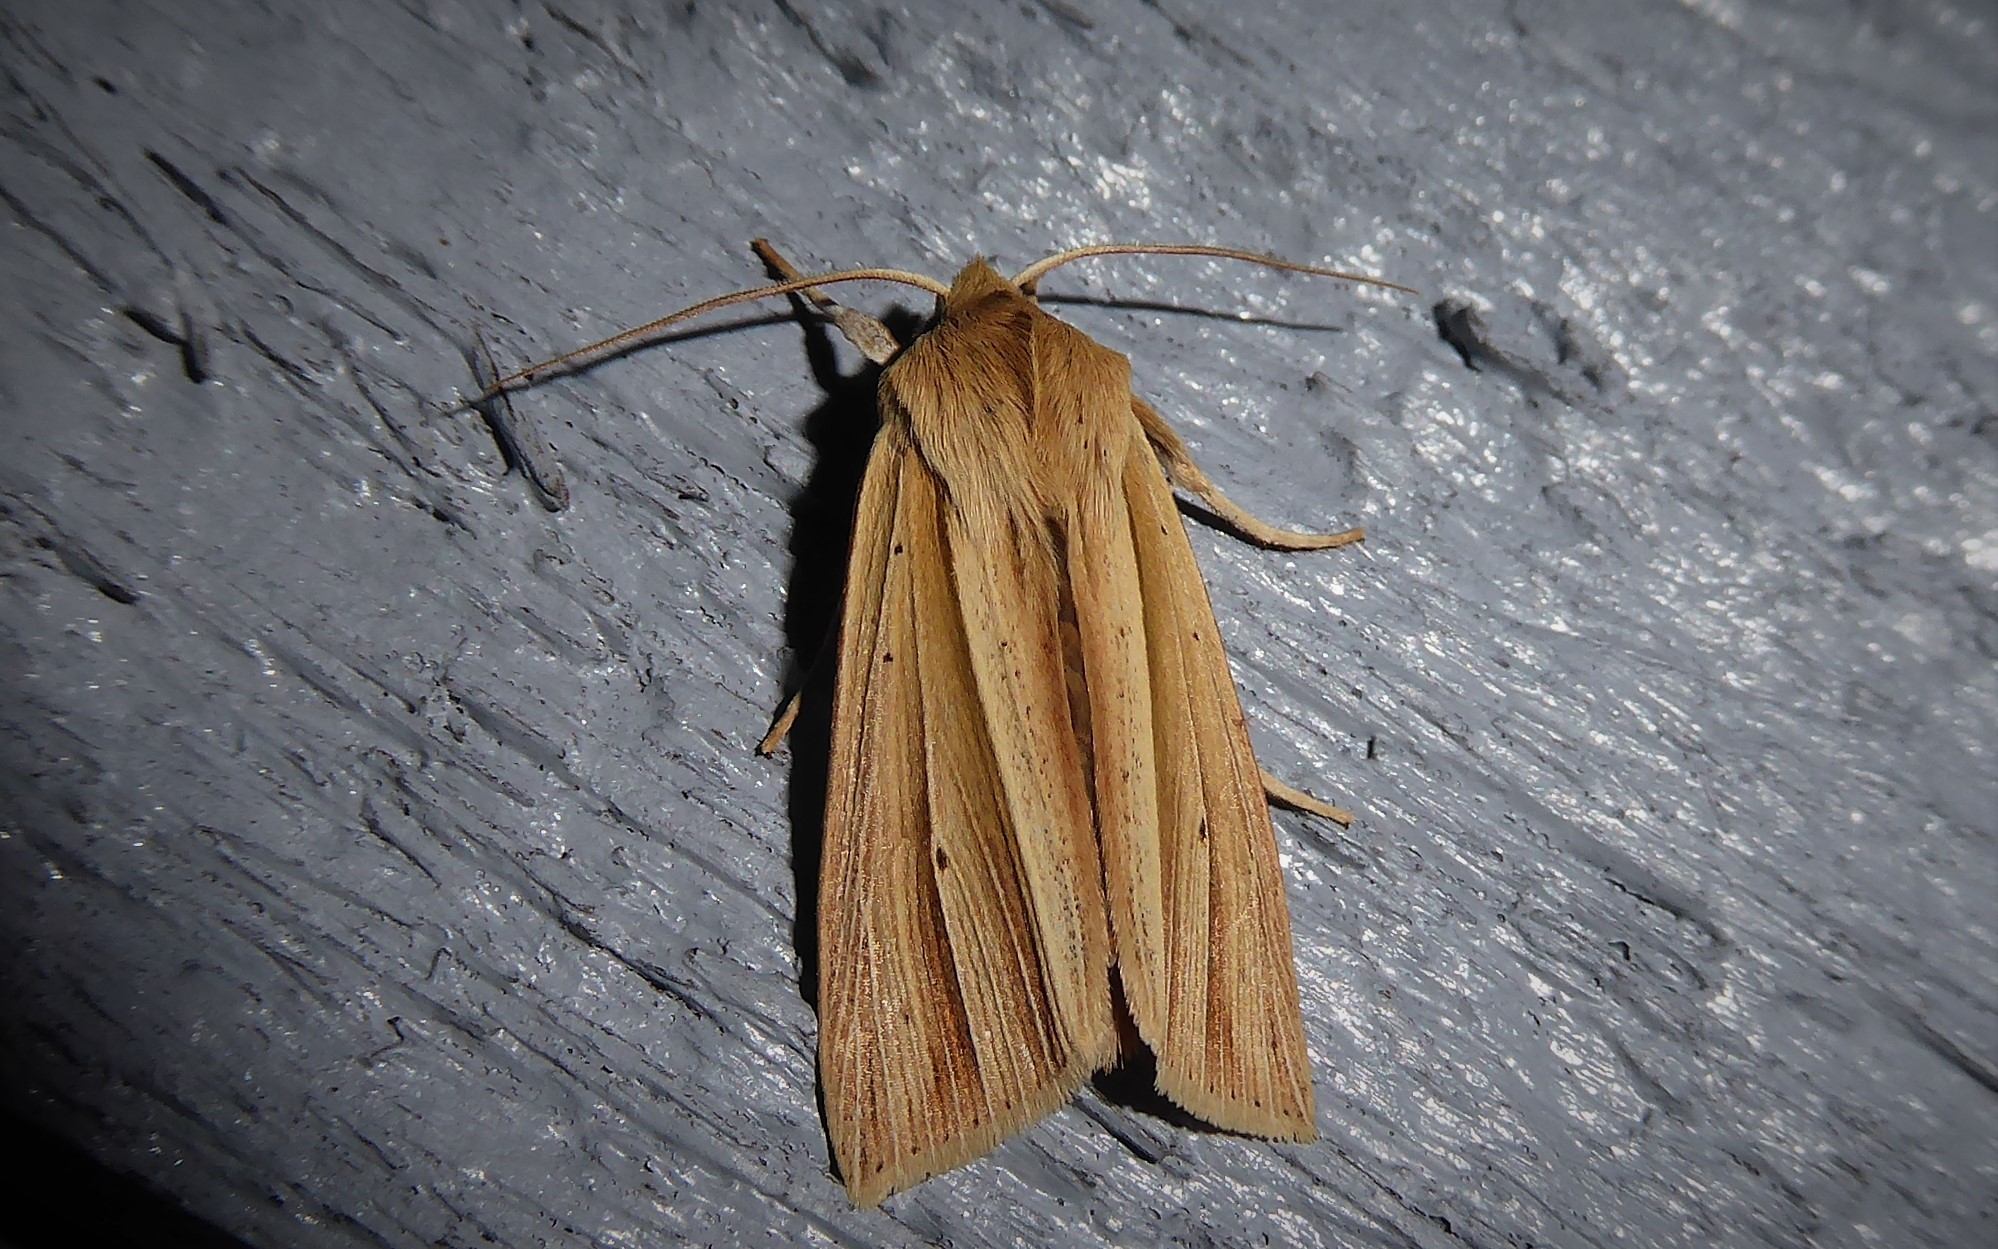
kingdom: Animalia
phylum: Arthropoda
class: Insecta
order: Lepidoptera
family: Noctuidae
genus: Ichneutica
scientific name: Ichneutica sulcana
